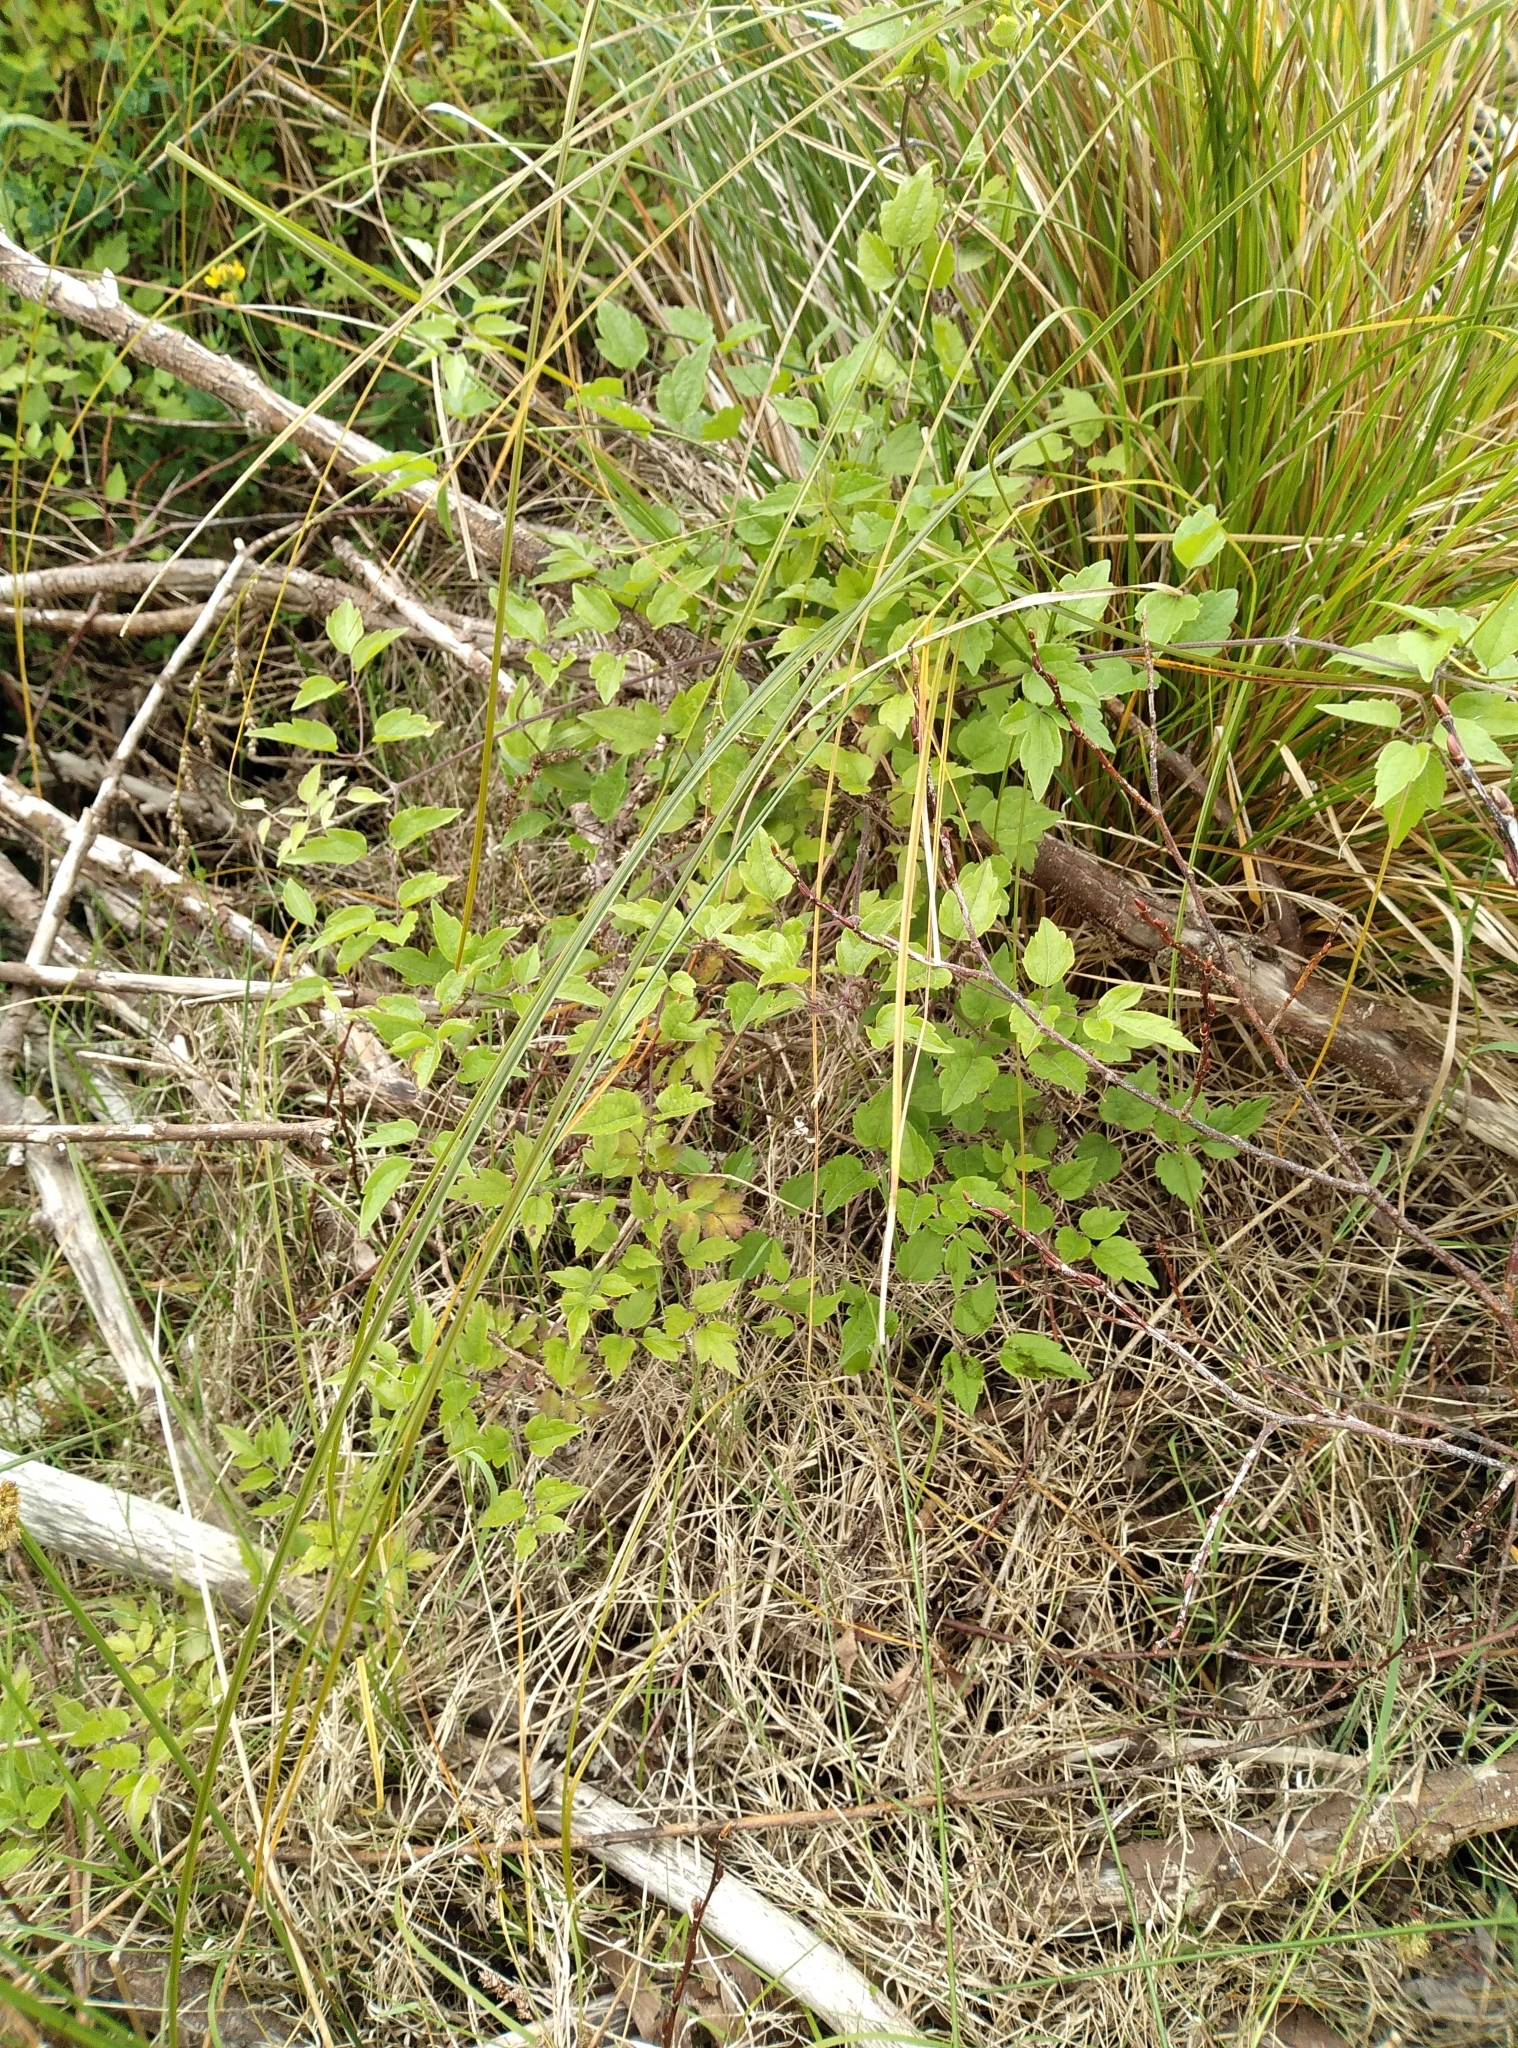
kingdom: Plantae
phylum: Tracheophyta
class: Magnoliopsida
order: Ranunculales
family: Ranunculaceae
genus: Clematis
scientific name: Clematis vitalba
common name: Evergreen clematis
